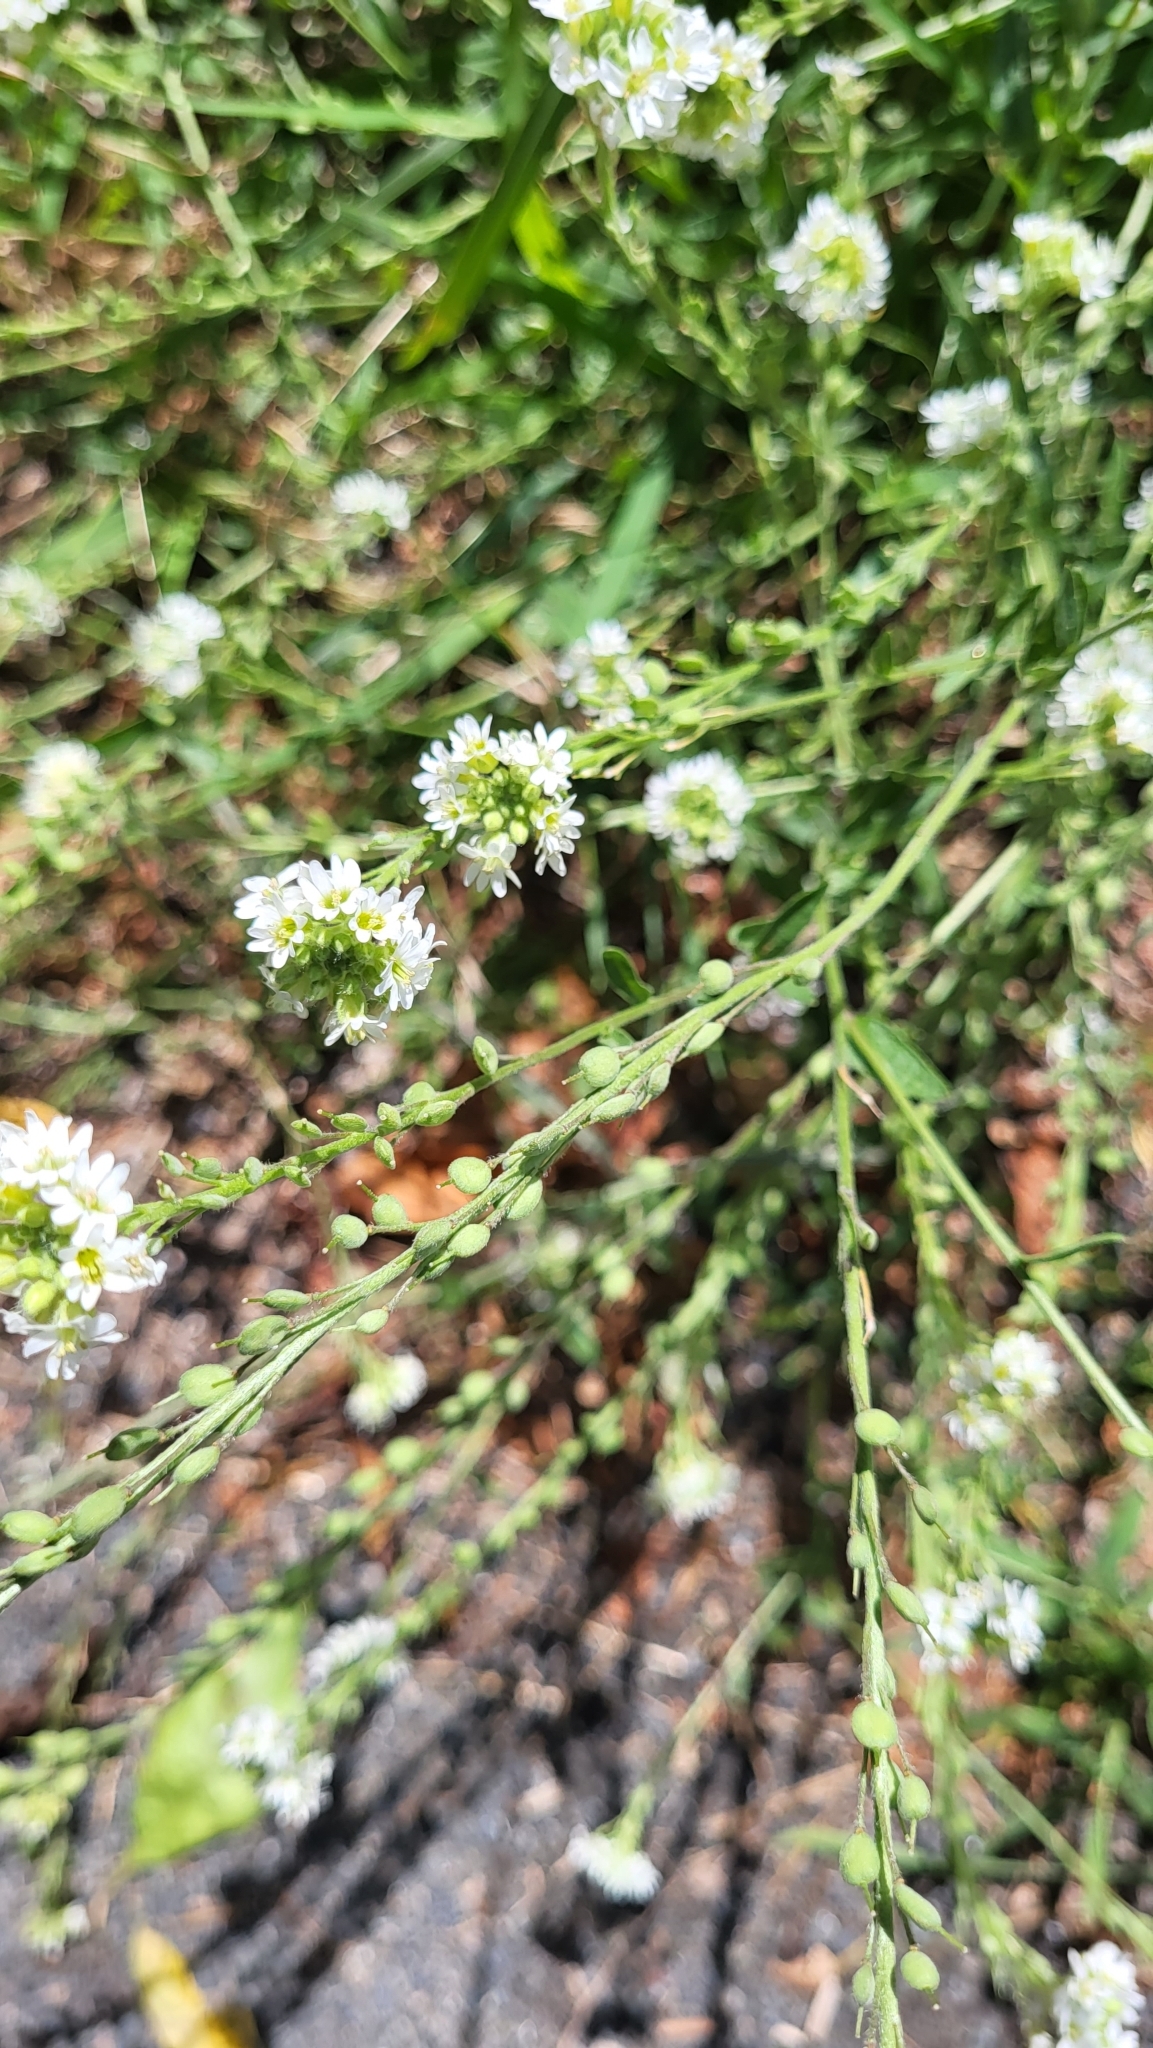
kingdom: Plantae
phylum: Tracheophyta
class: Magnoliopsida
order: Brassicales
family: Brassicaceae
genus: Berteroa
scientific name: Berteroa incana
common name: Hoary alison
